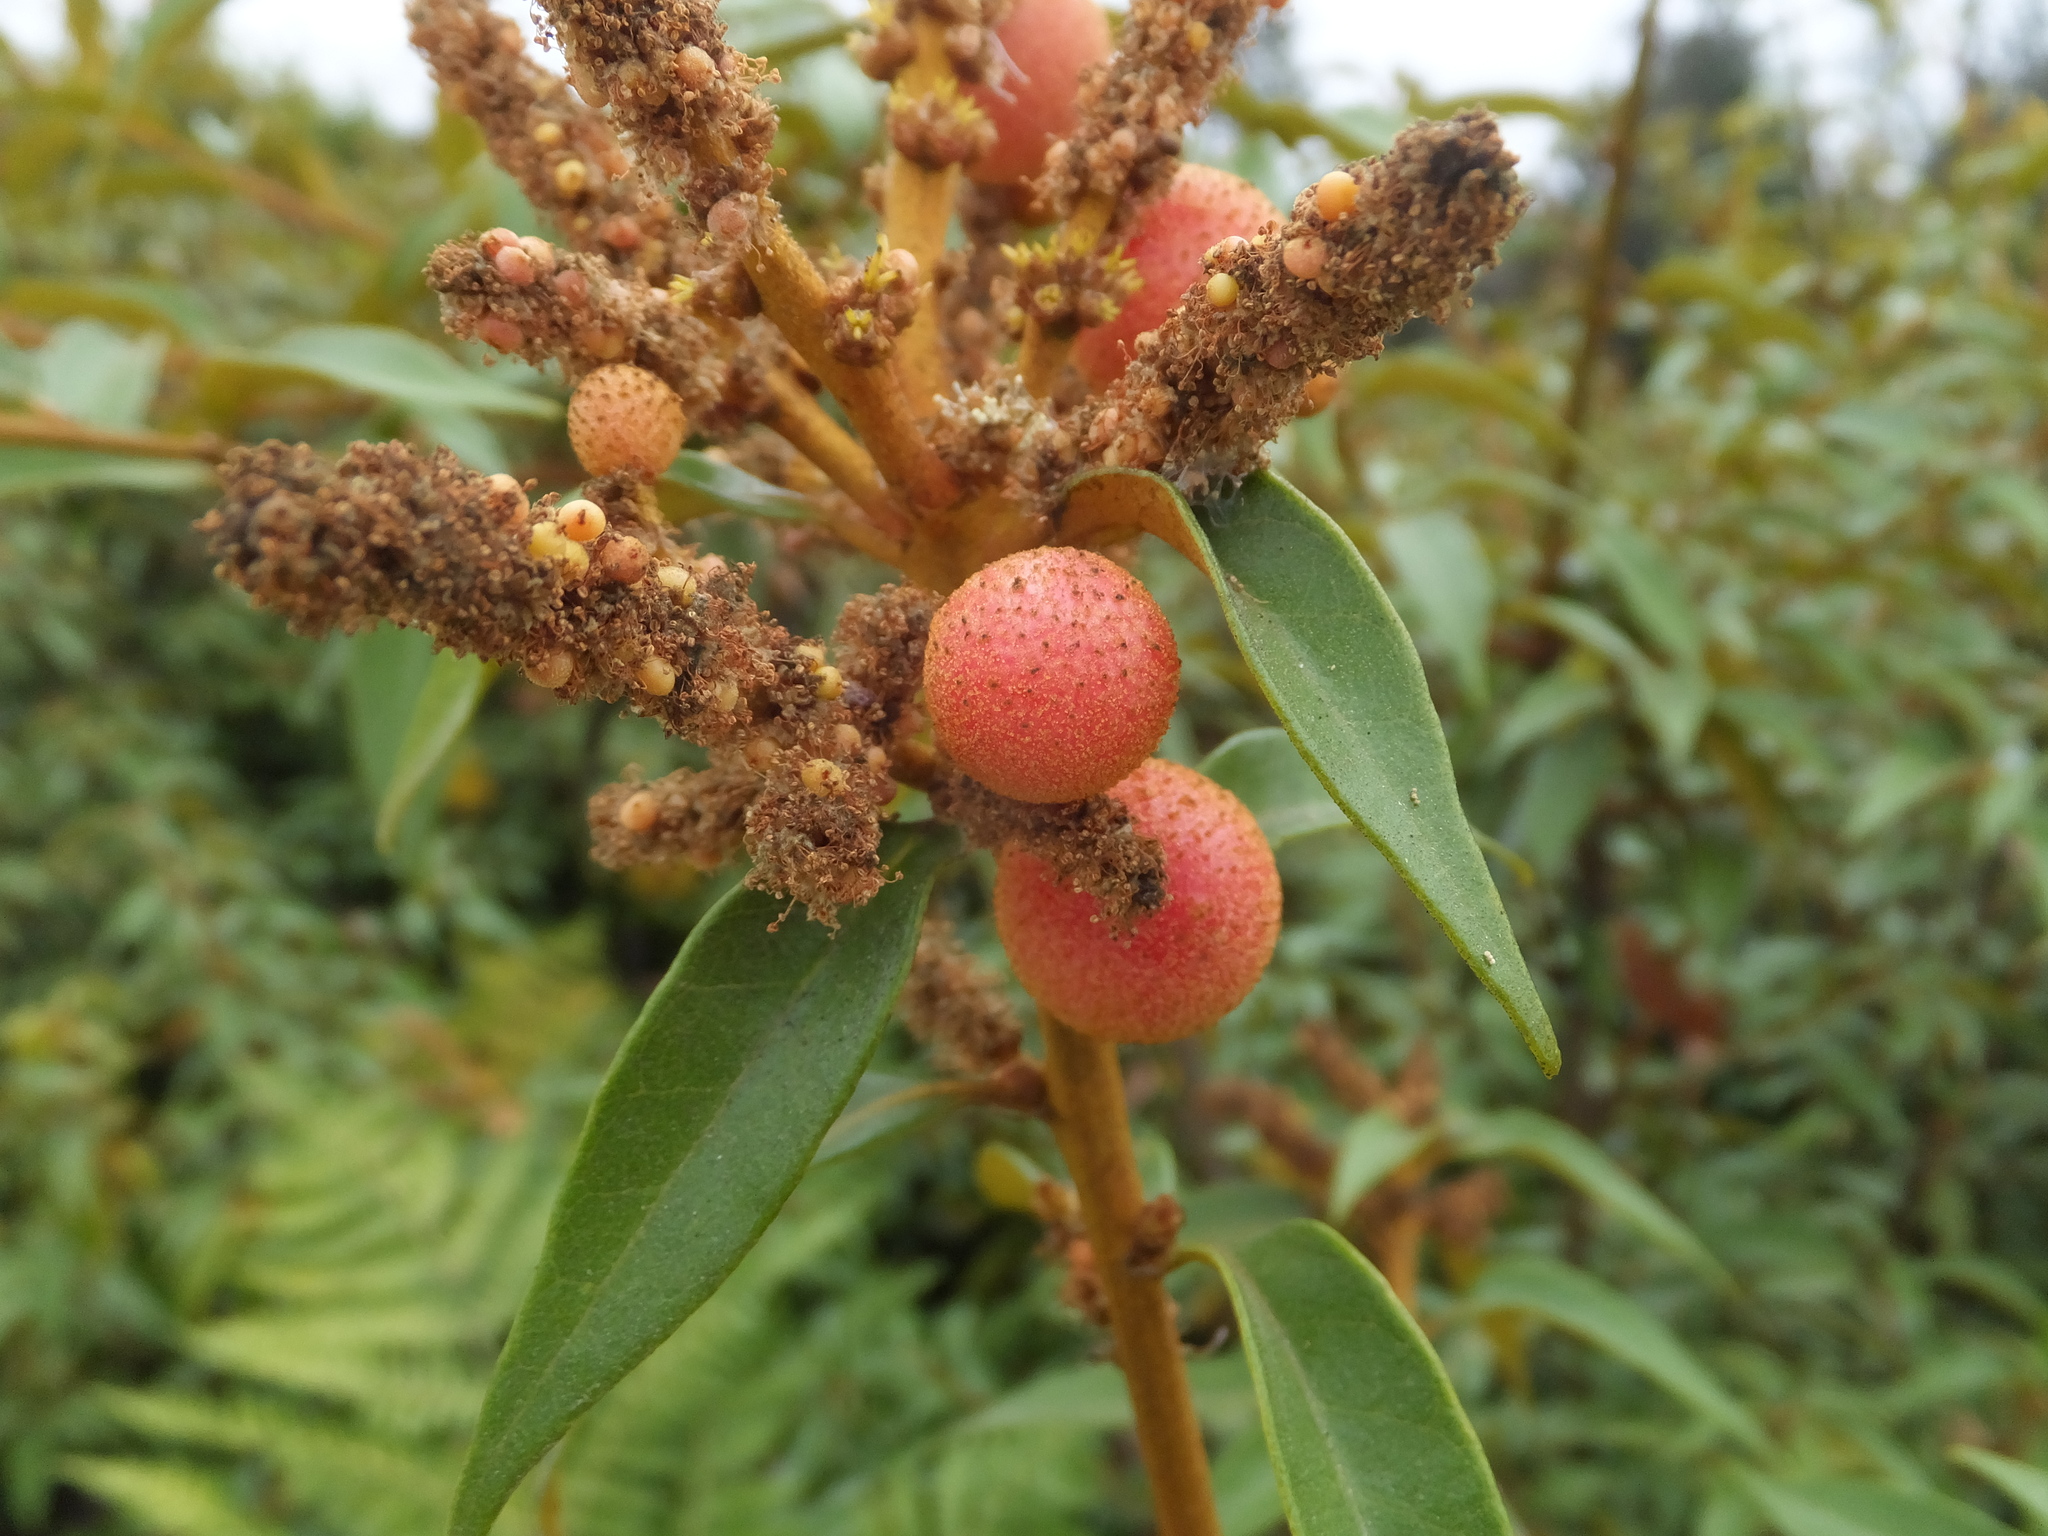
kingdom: Plantae
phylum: Tracheophyta
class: Magnoliopsida
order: Fagales
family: Fagaceae
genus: Chrysolepis
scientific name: Chrysolepis chrysophylla
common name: Giant chinquapin
